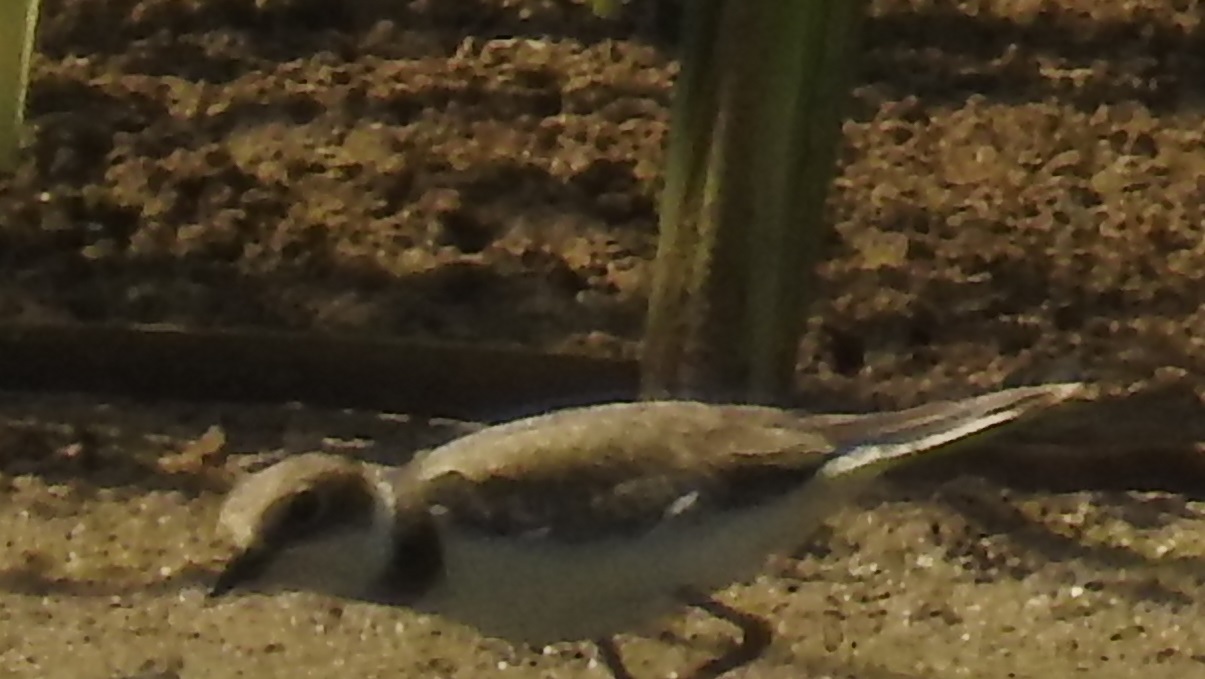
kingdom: Animalia
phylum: Chordata
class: Aves
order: Charadriiformes
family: Charadriidae
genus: Charadrius
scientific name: Charadrius dubius
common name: Little ringed plover
